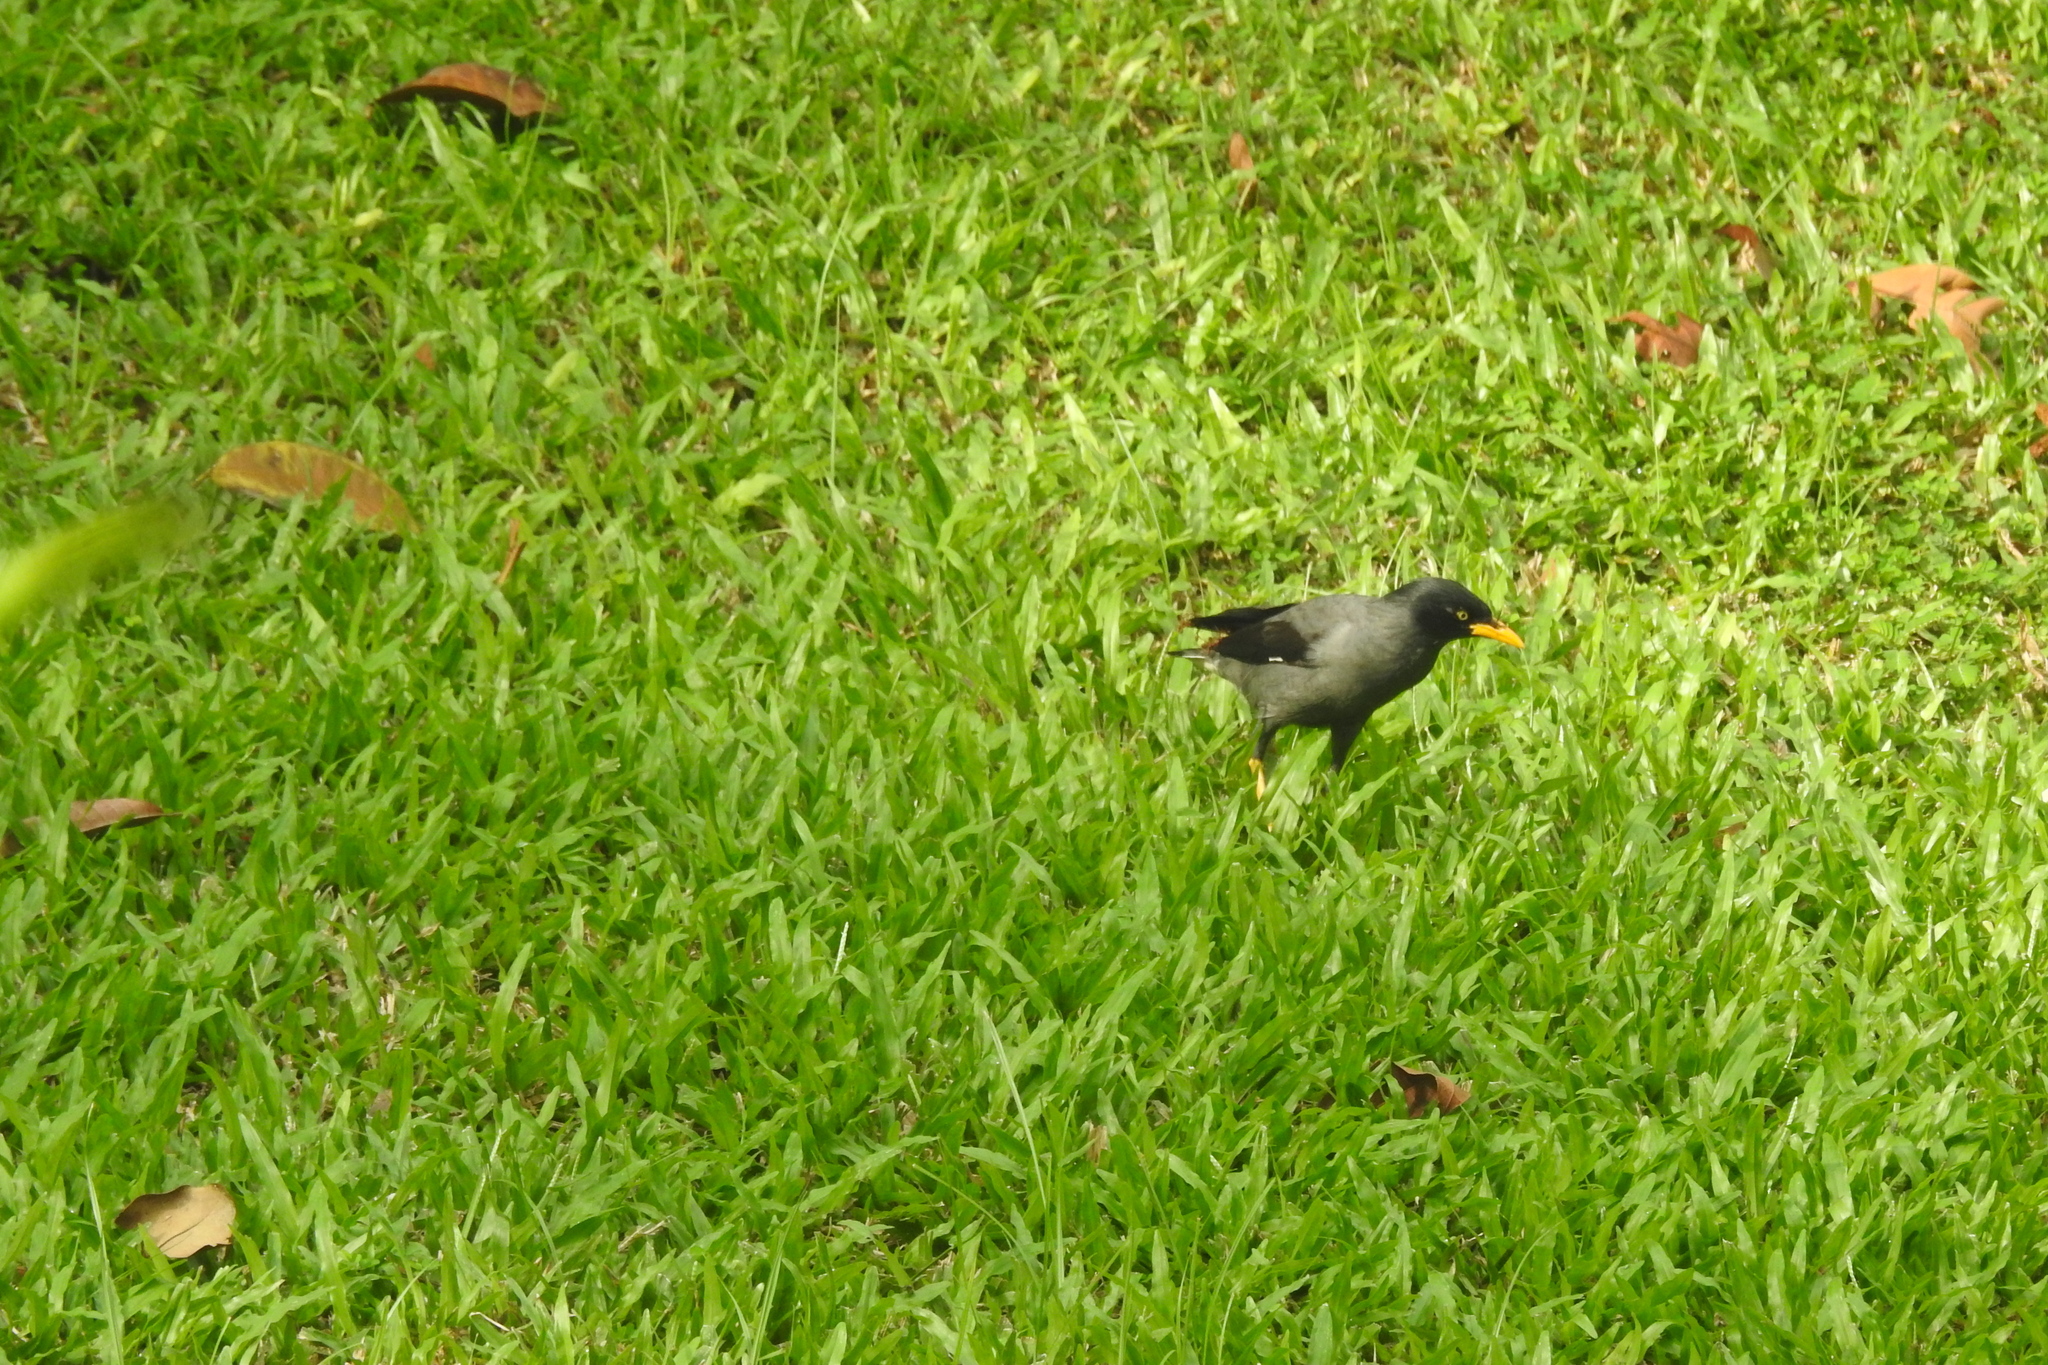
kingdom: Animalia
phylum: Chordata
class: Aves
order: Passeriformes
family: Sturnidae
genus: Acridotheres
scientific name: Acridotheres javanicus
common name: Javan myna
